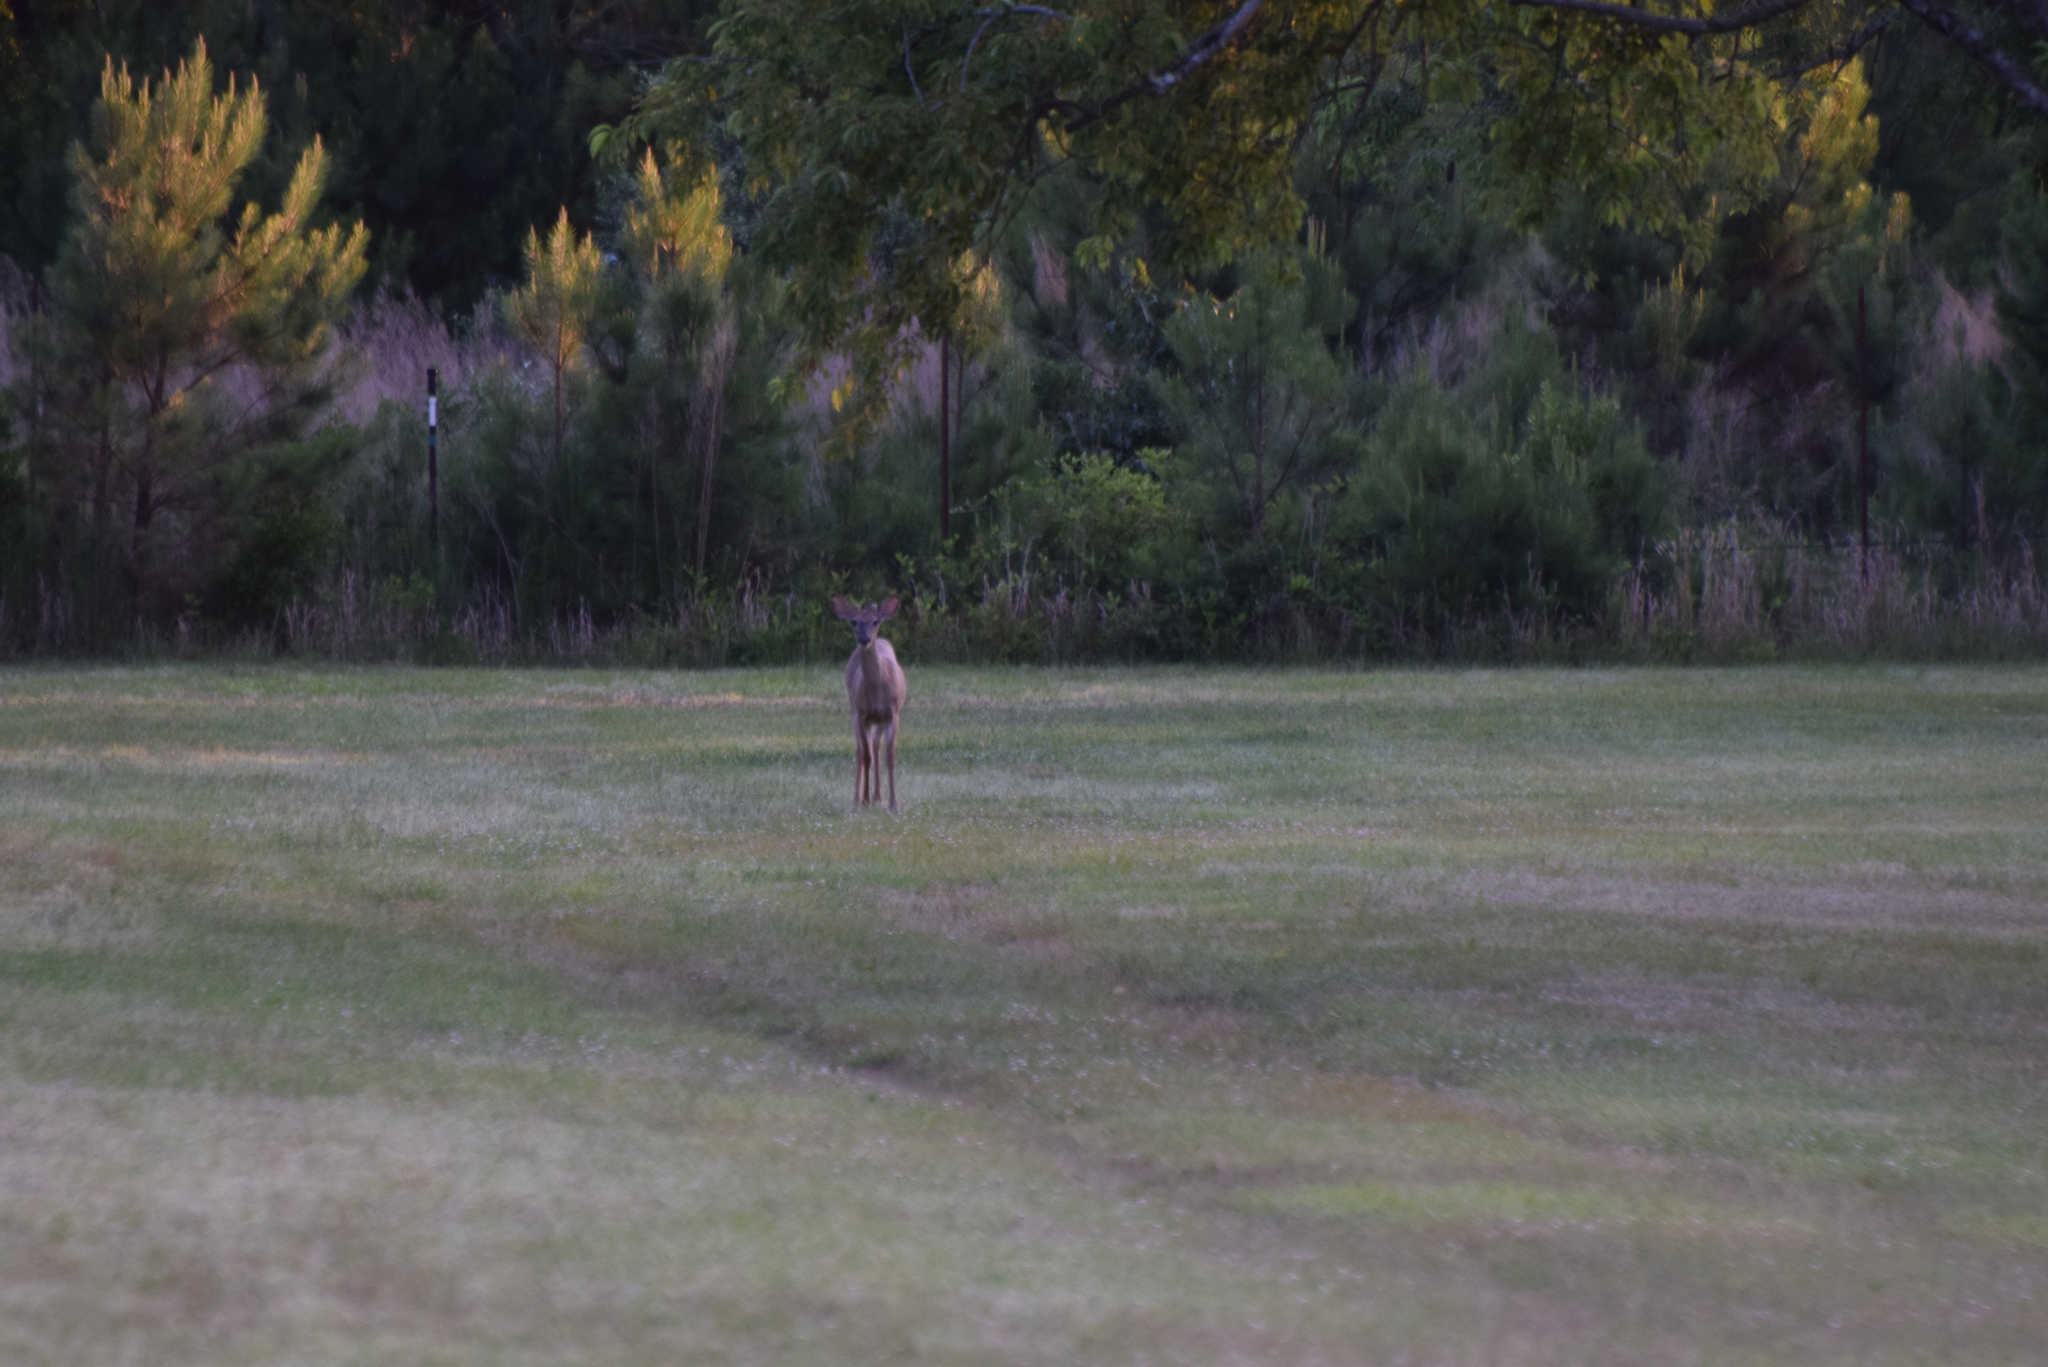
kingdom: Animalia
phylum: Chordata
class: Mammalia
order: Artiodactyla
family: Cervidae
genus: Odocoileus
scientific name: Odocoileus virginianus
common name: White-tailed deer
